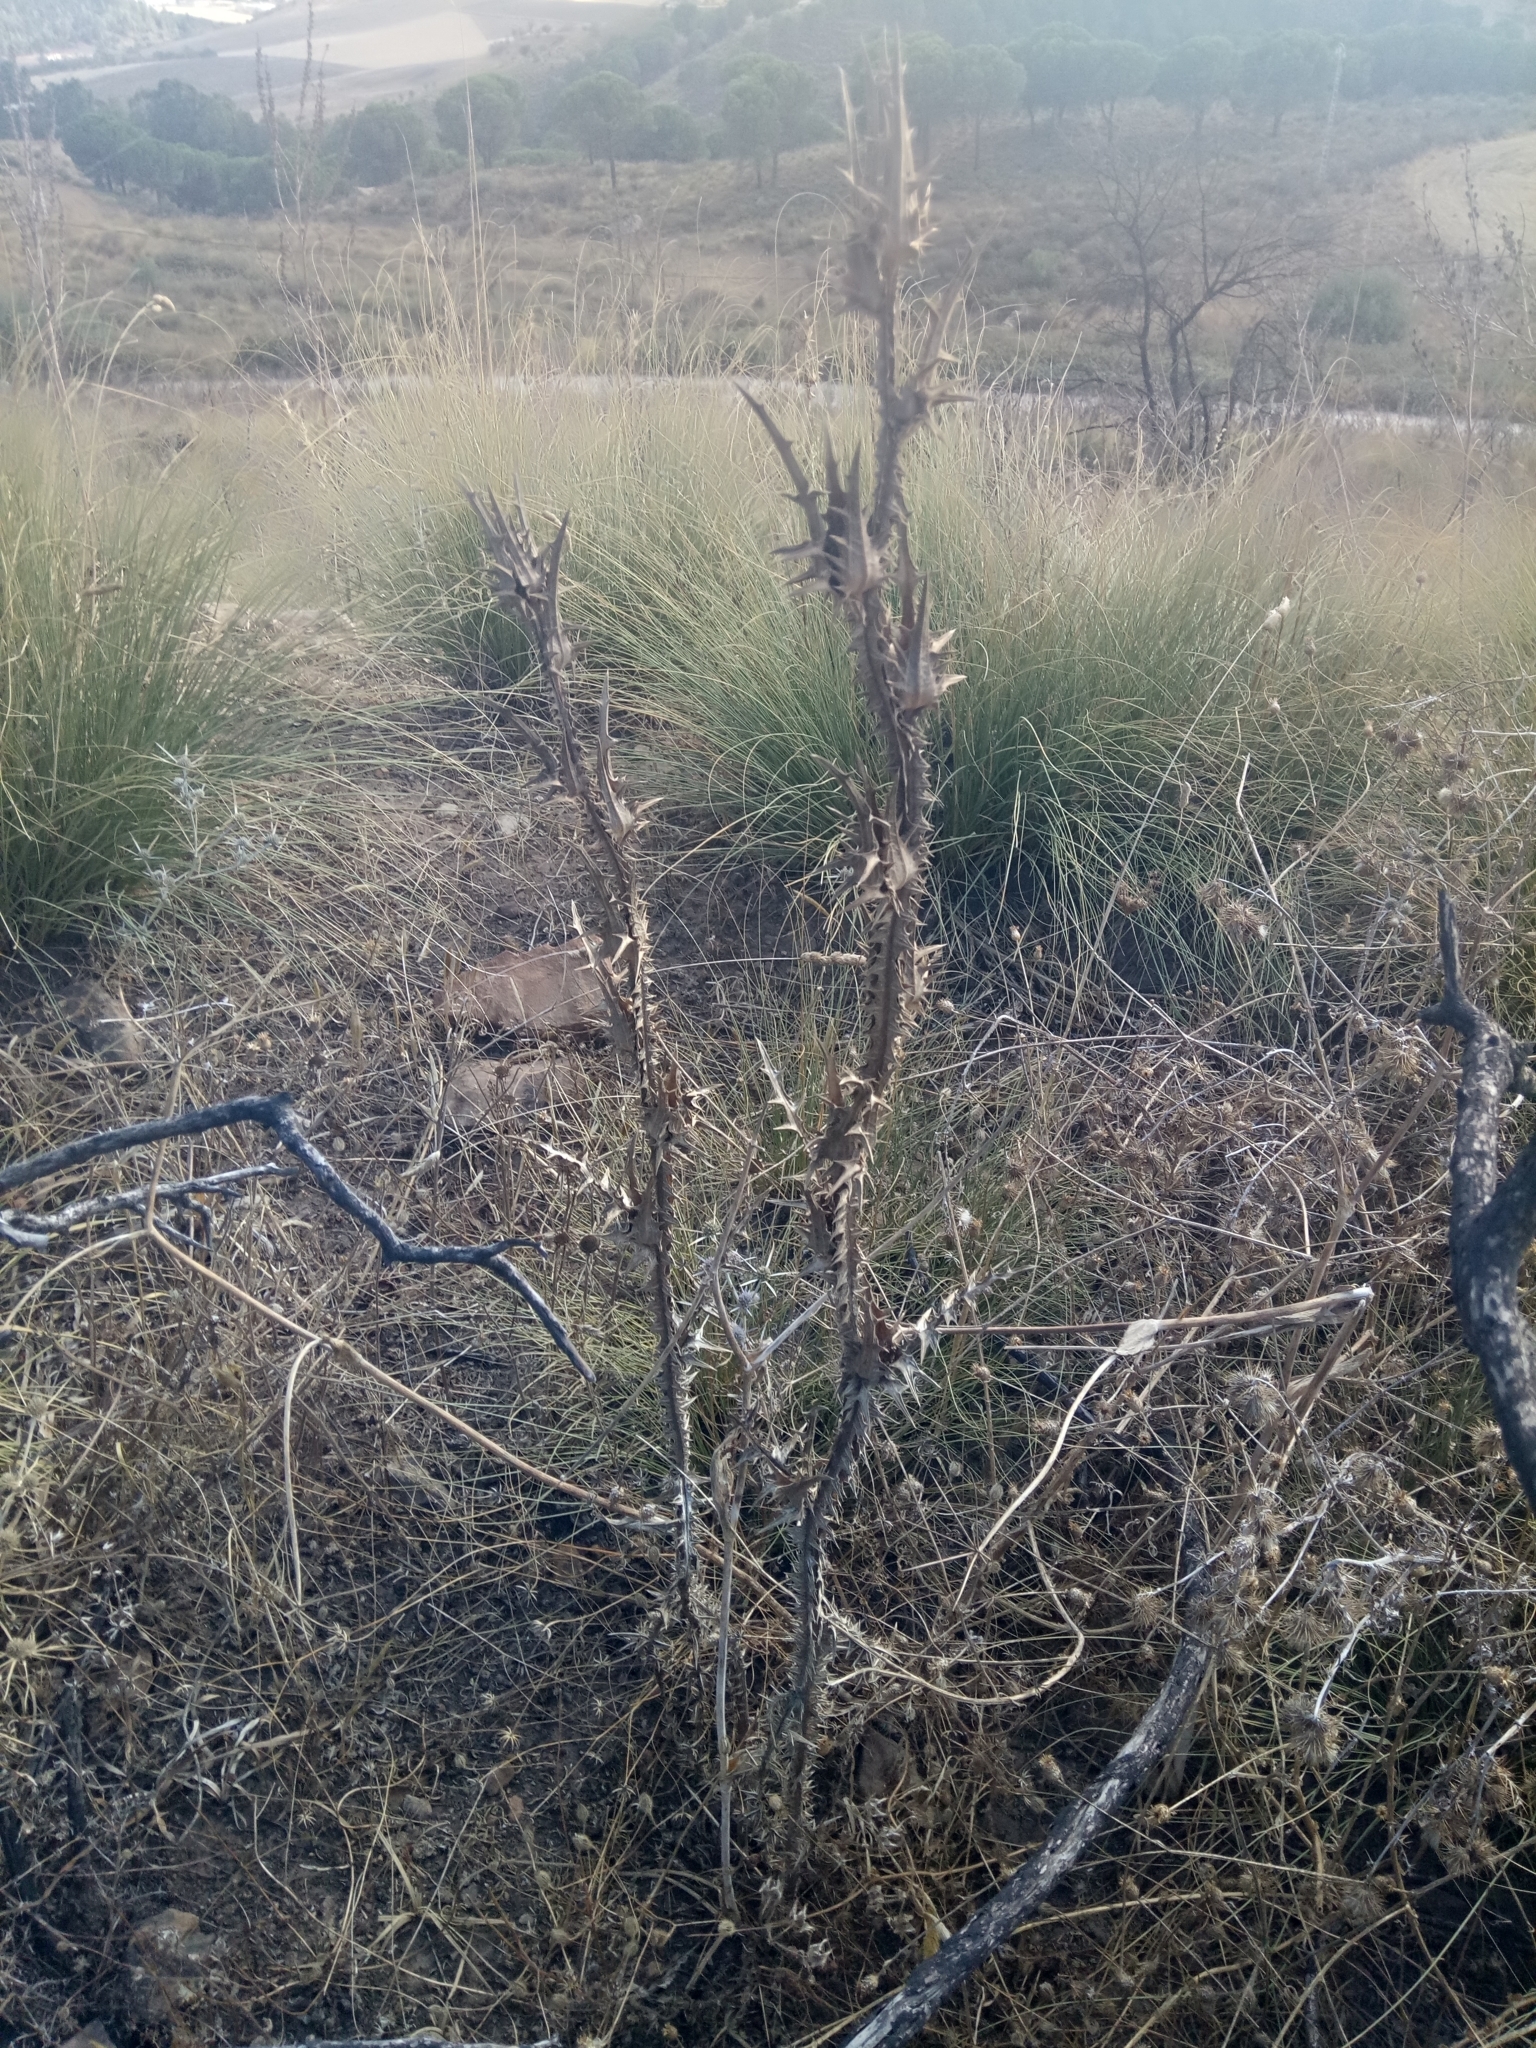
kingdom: Plantae
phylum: Tracheophyta
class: Magnoliopsida
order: Asterales
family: Asteraceae
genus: Scolymus
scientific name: Scolymus grandiflorus
